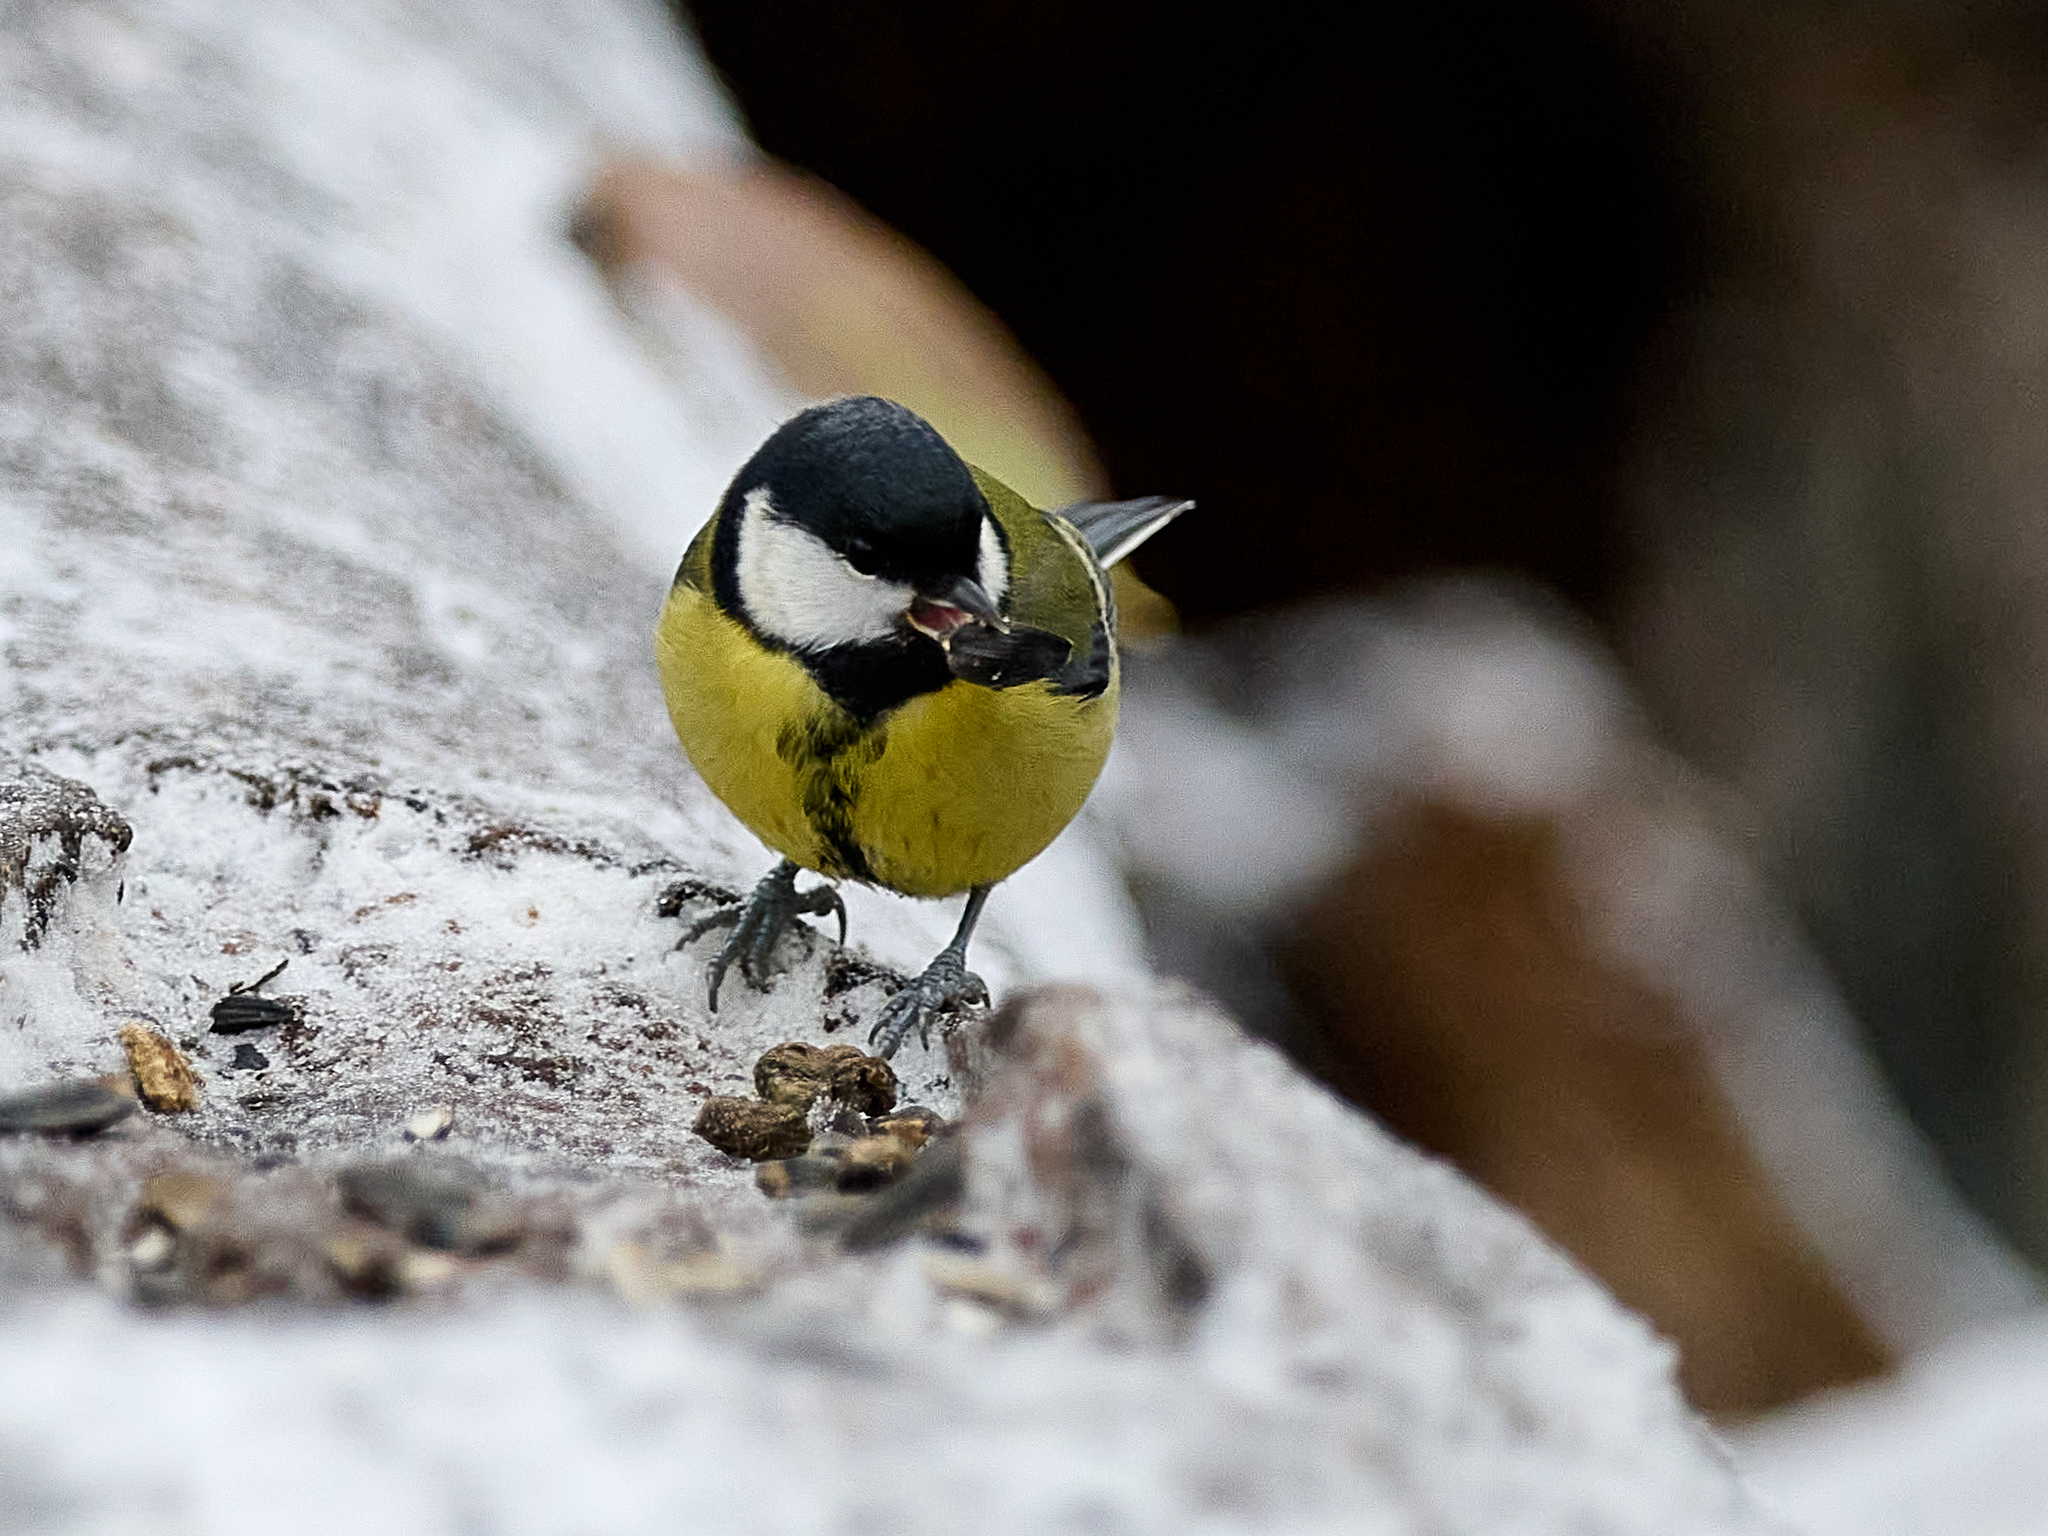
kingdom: Animalia
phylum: Chordata
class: Aves
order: Passeriformes
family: Paridae
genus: Parus
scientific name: Parus major
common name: Great tit
